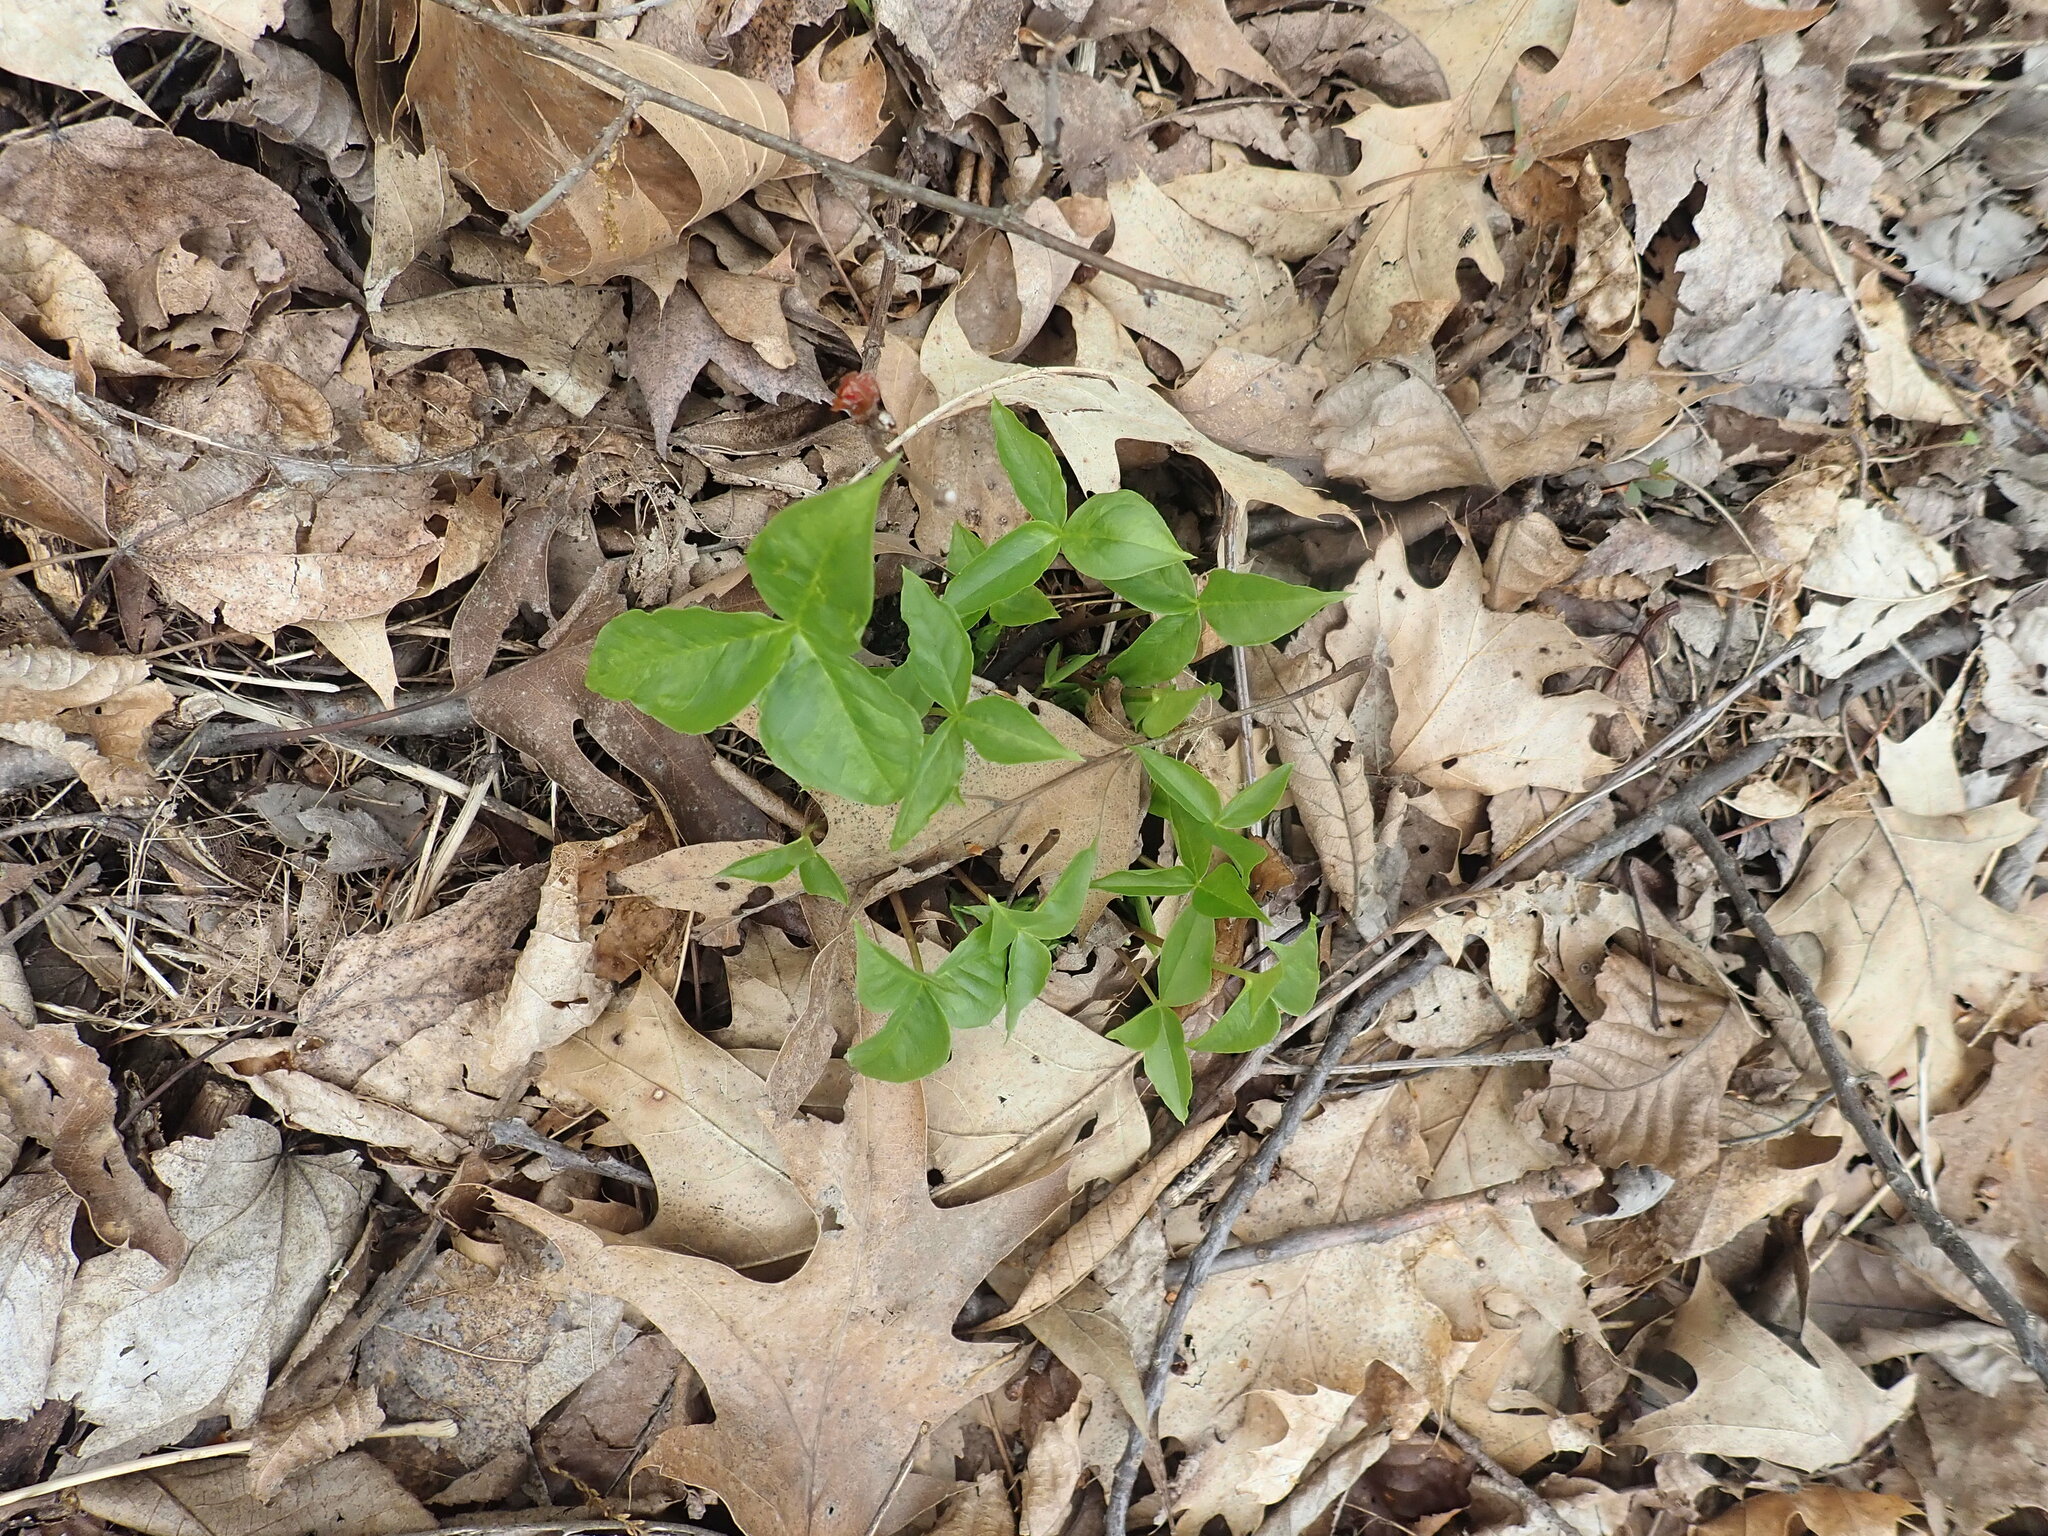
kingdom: Plantae
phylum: Tracheophyta
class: Liliopsida
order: Alismatales
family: Araceae
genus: Arisaema
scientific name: Arisaema triphyllum
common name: Jack-in-the-pulpit
